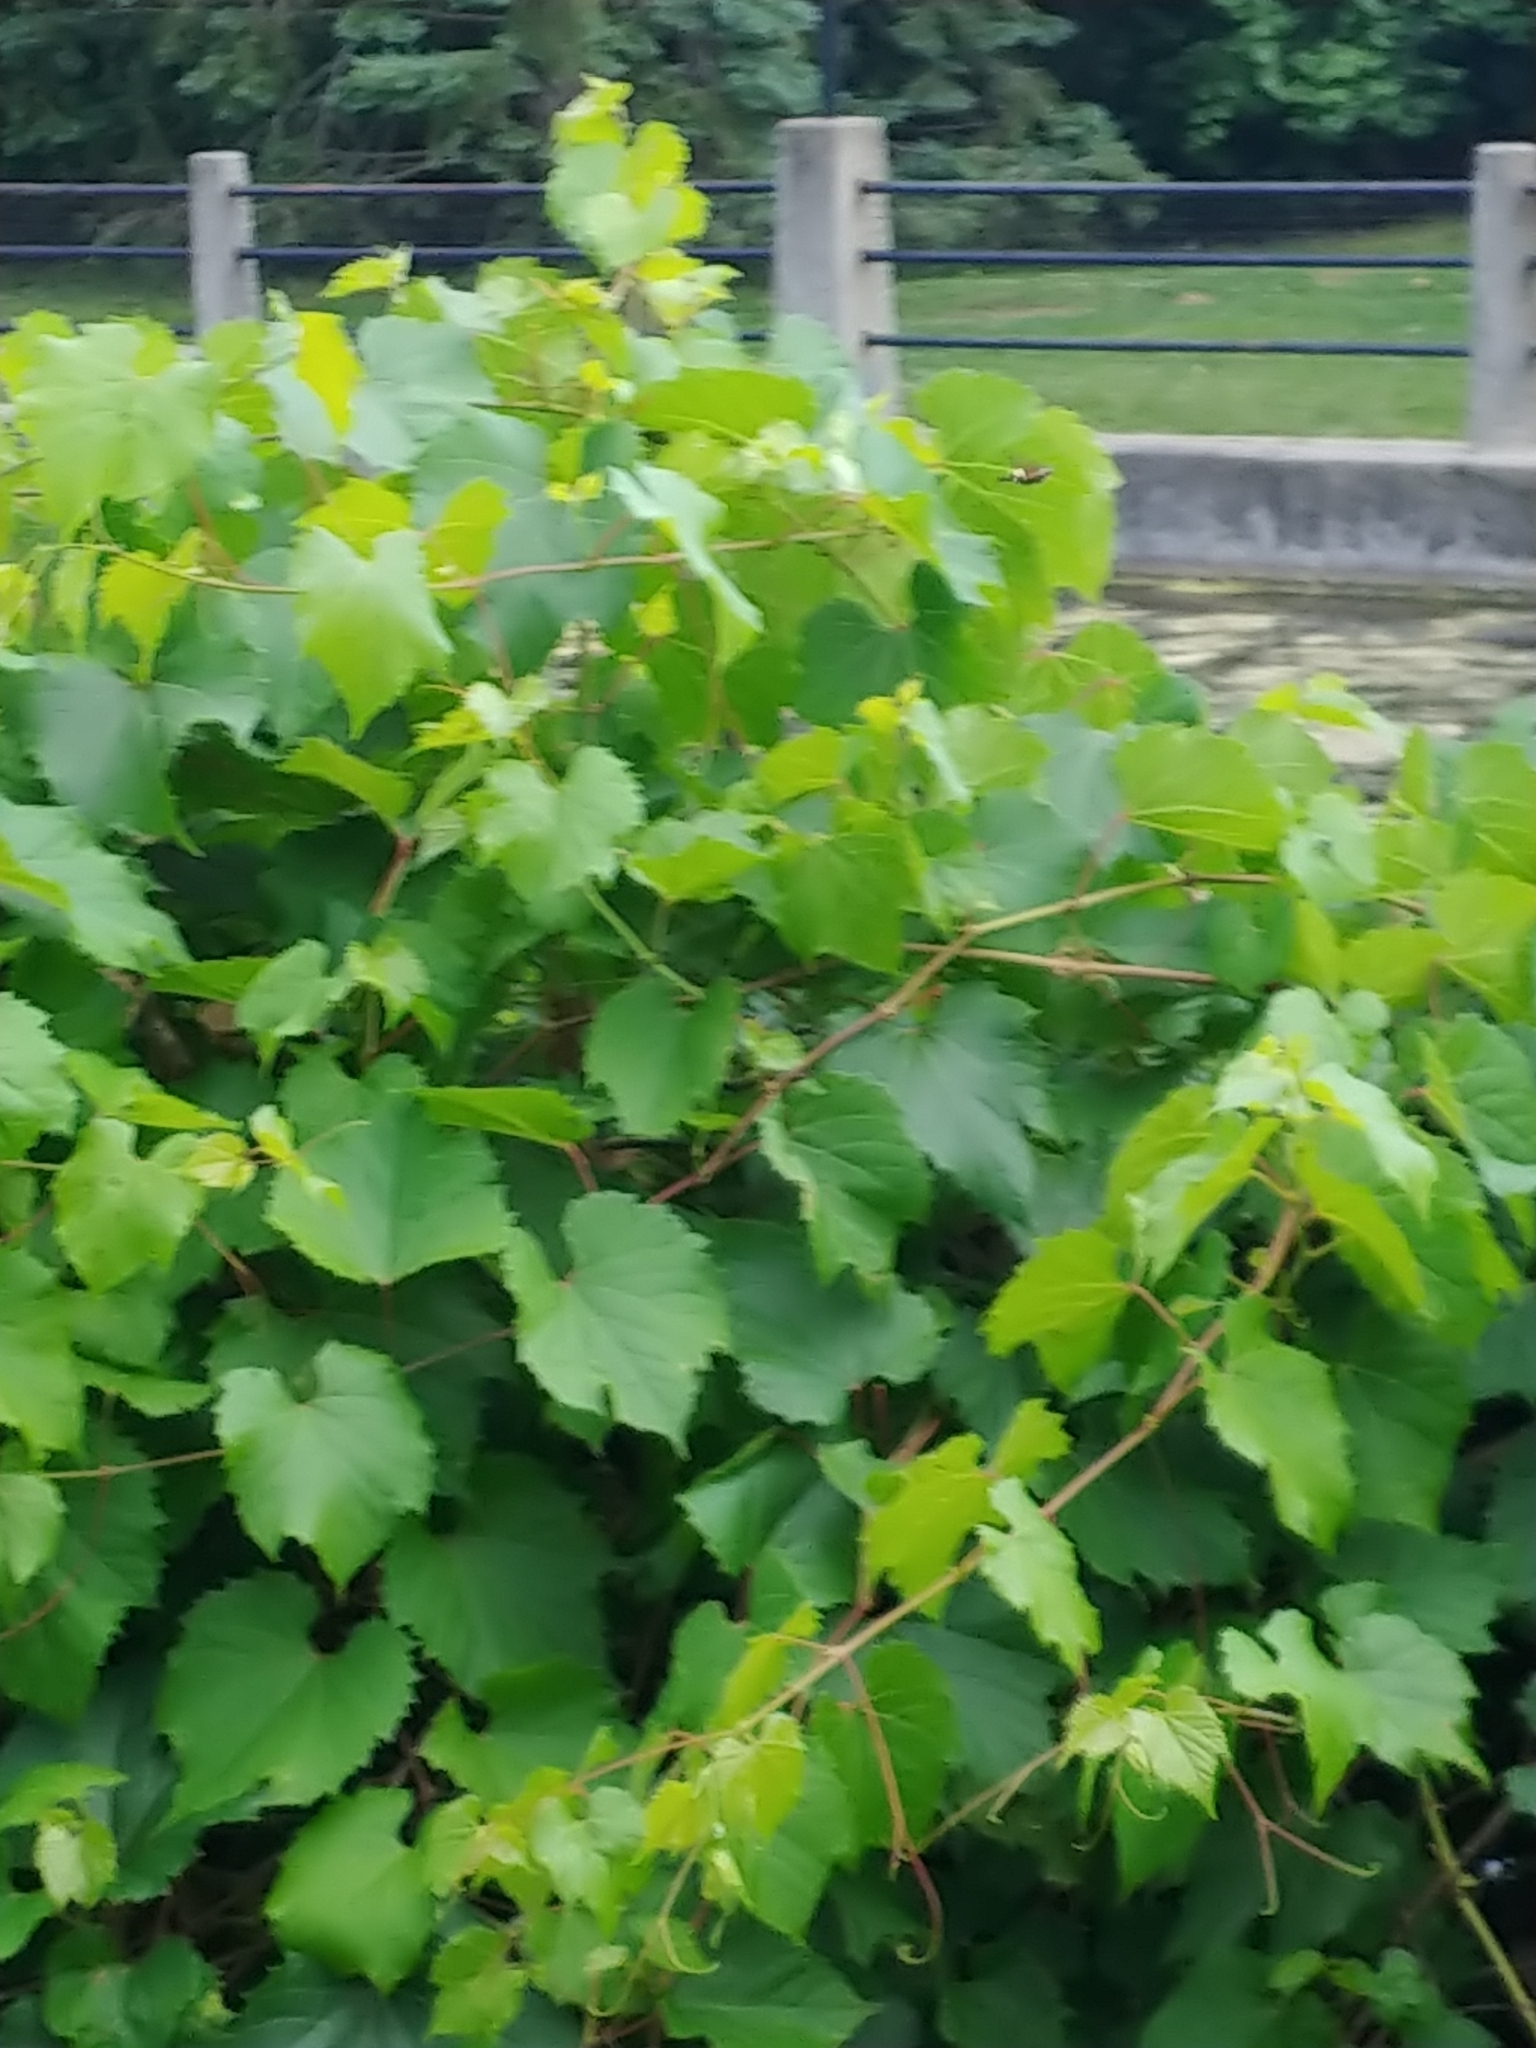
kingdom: Animalia
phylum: Arthropoda
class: Insecta
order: Lepidoptera
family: Sphingidae
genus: Amphion
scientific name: Amphion floridensis
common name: Nessus sphinx
